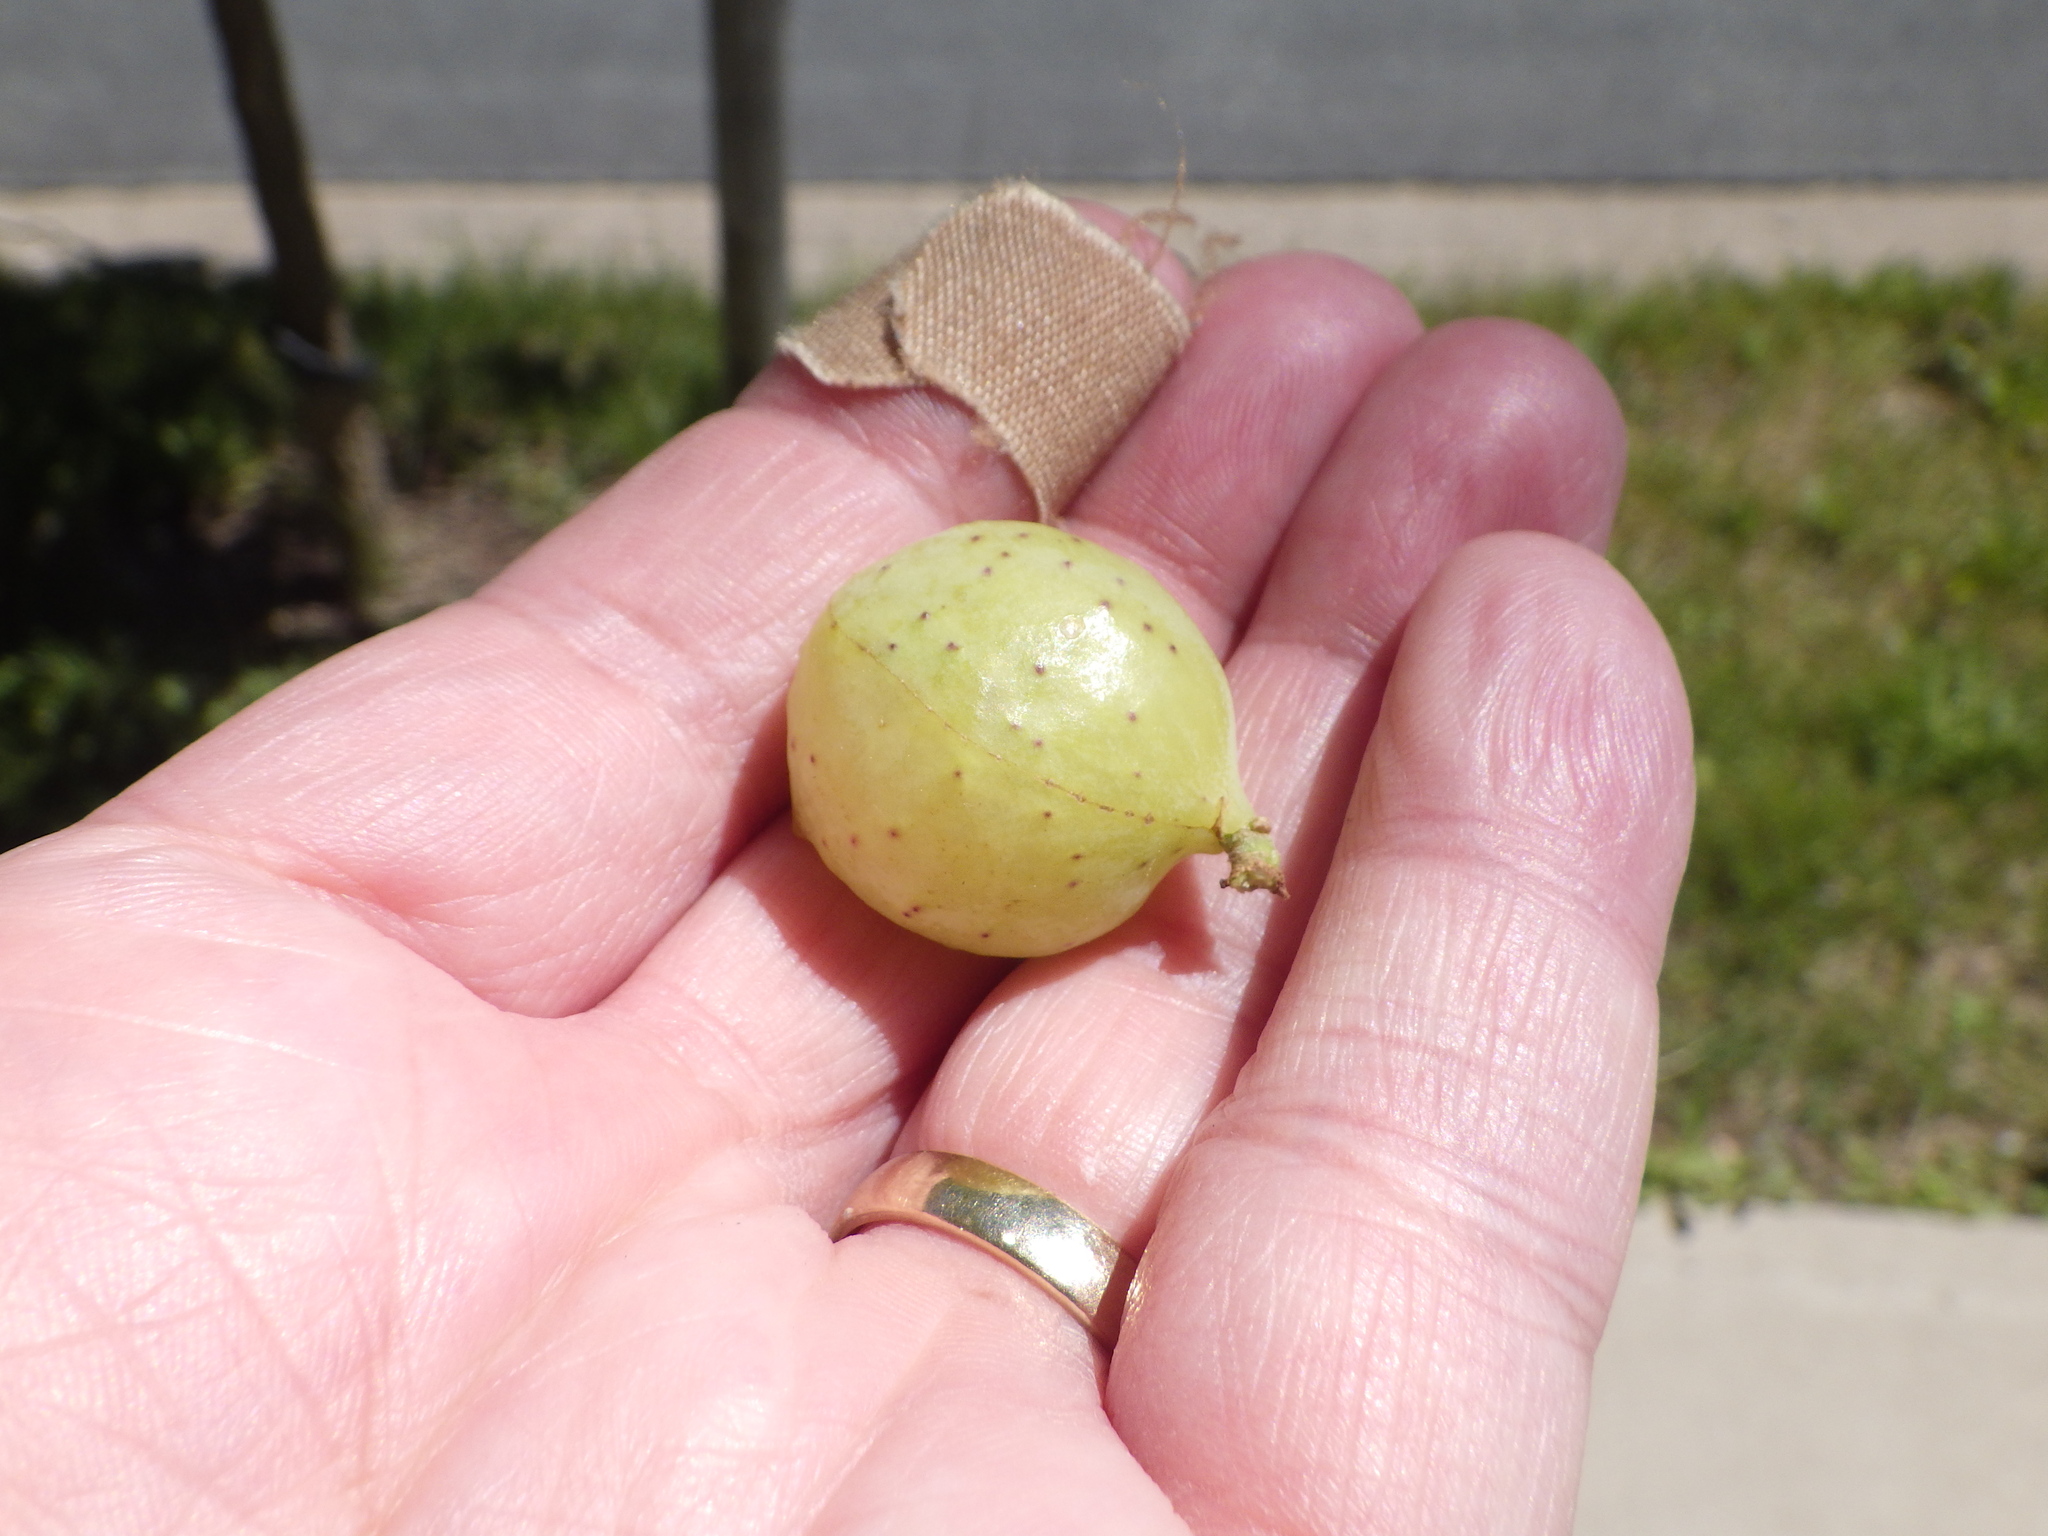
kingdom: Animalia
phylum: Arthropoda
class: Insecta
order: Hymenoptera
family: Cynipidae
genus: Amphibolips
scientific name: Amphibolips
